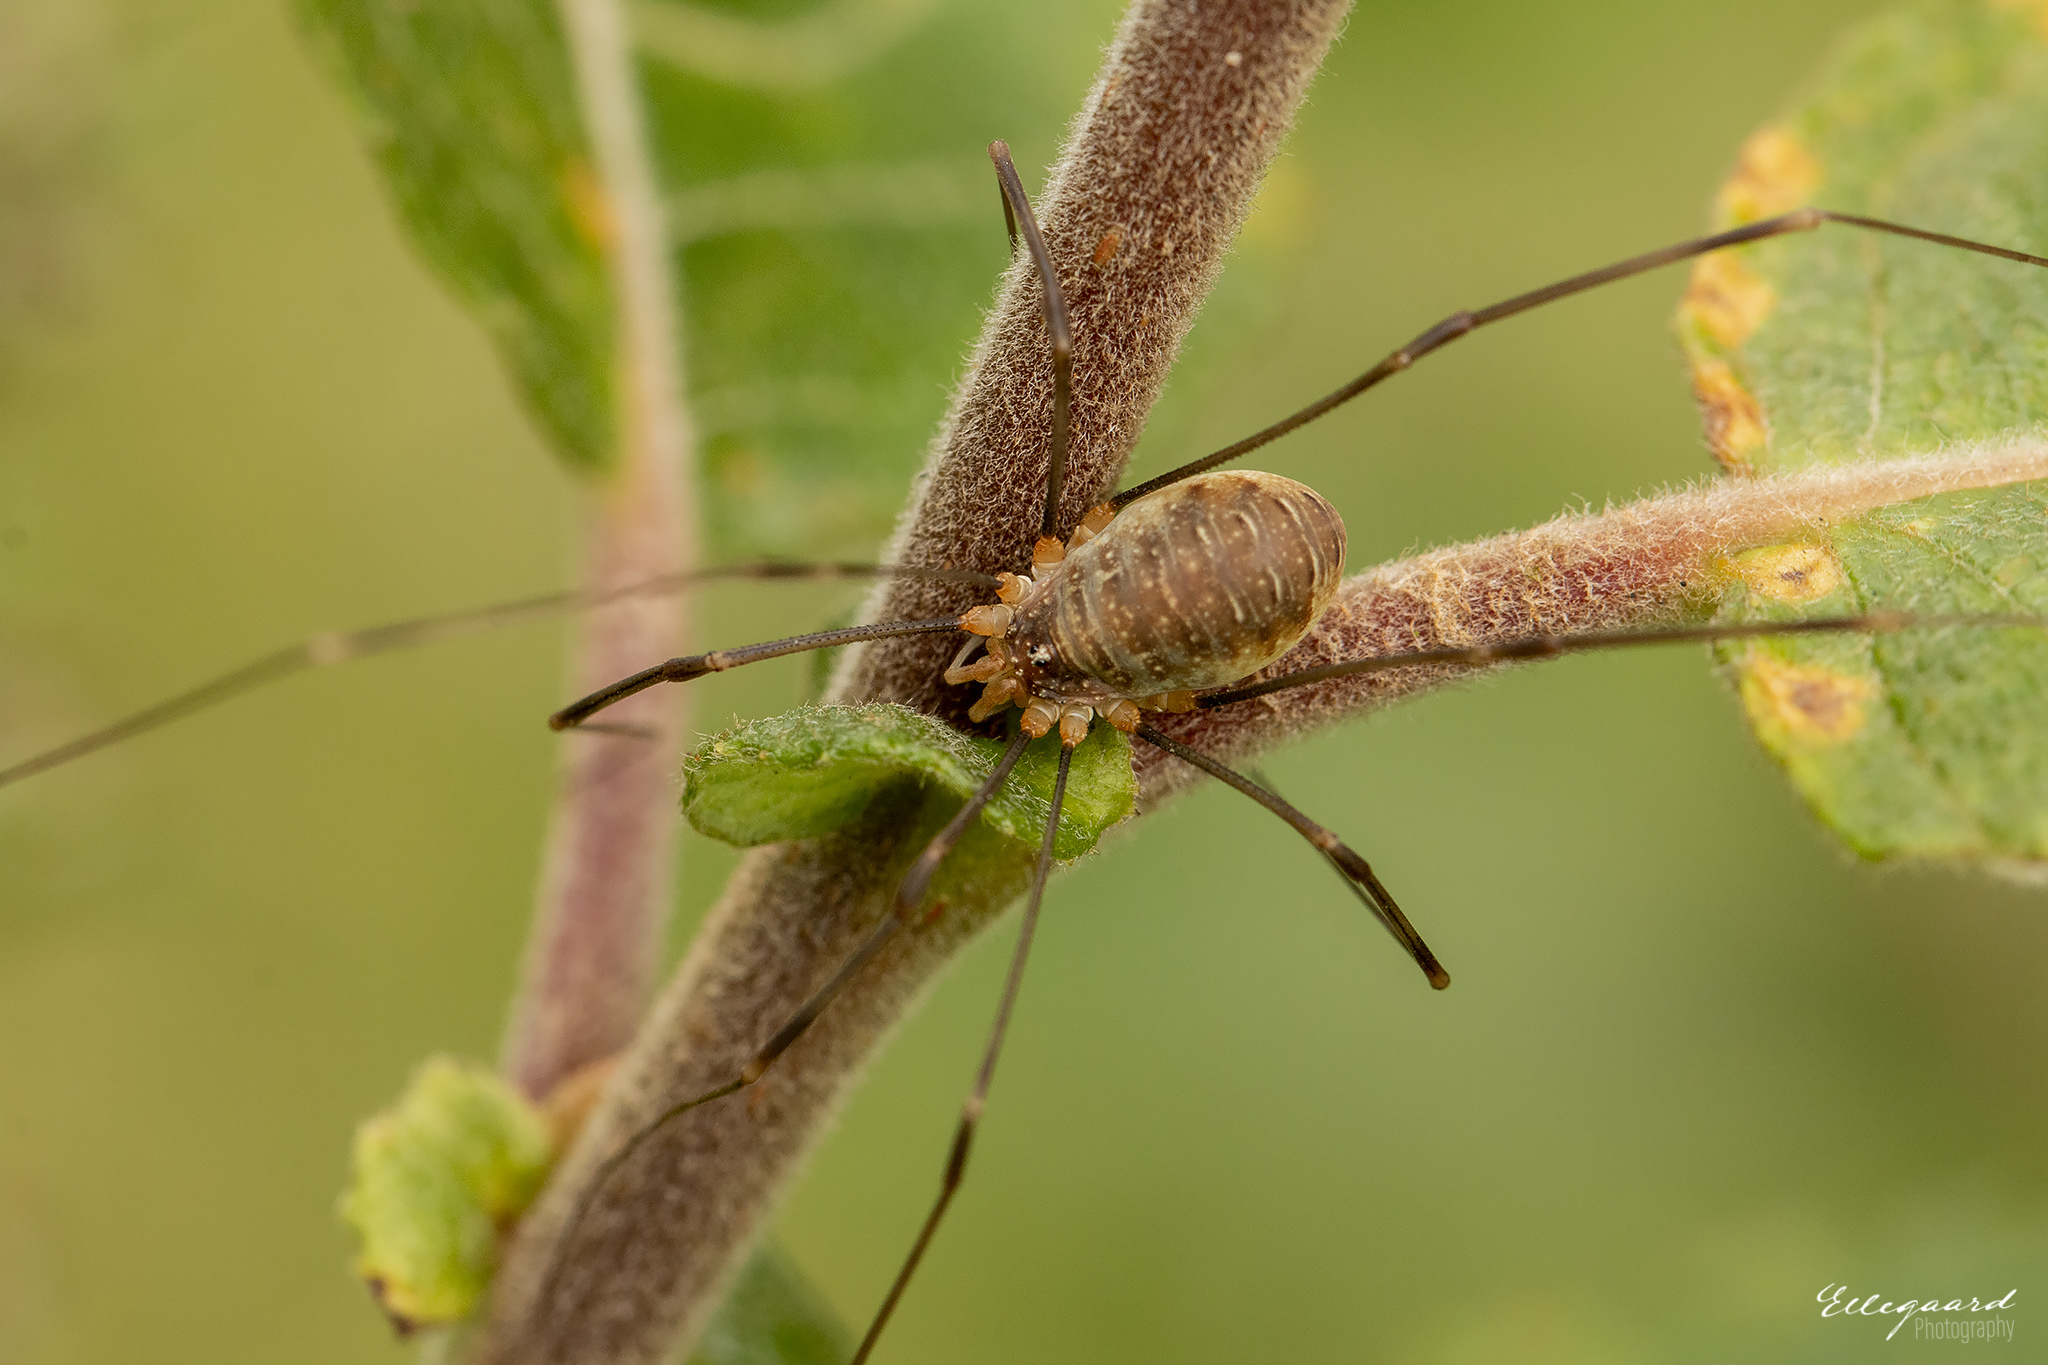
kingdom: Animalia
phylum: Arthropoda
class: Arachnida
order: Opiliones
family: Phalangiidae
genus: Opilio
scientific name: Opilio canestrinii
